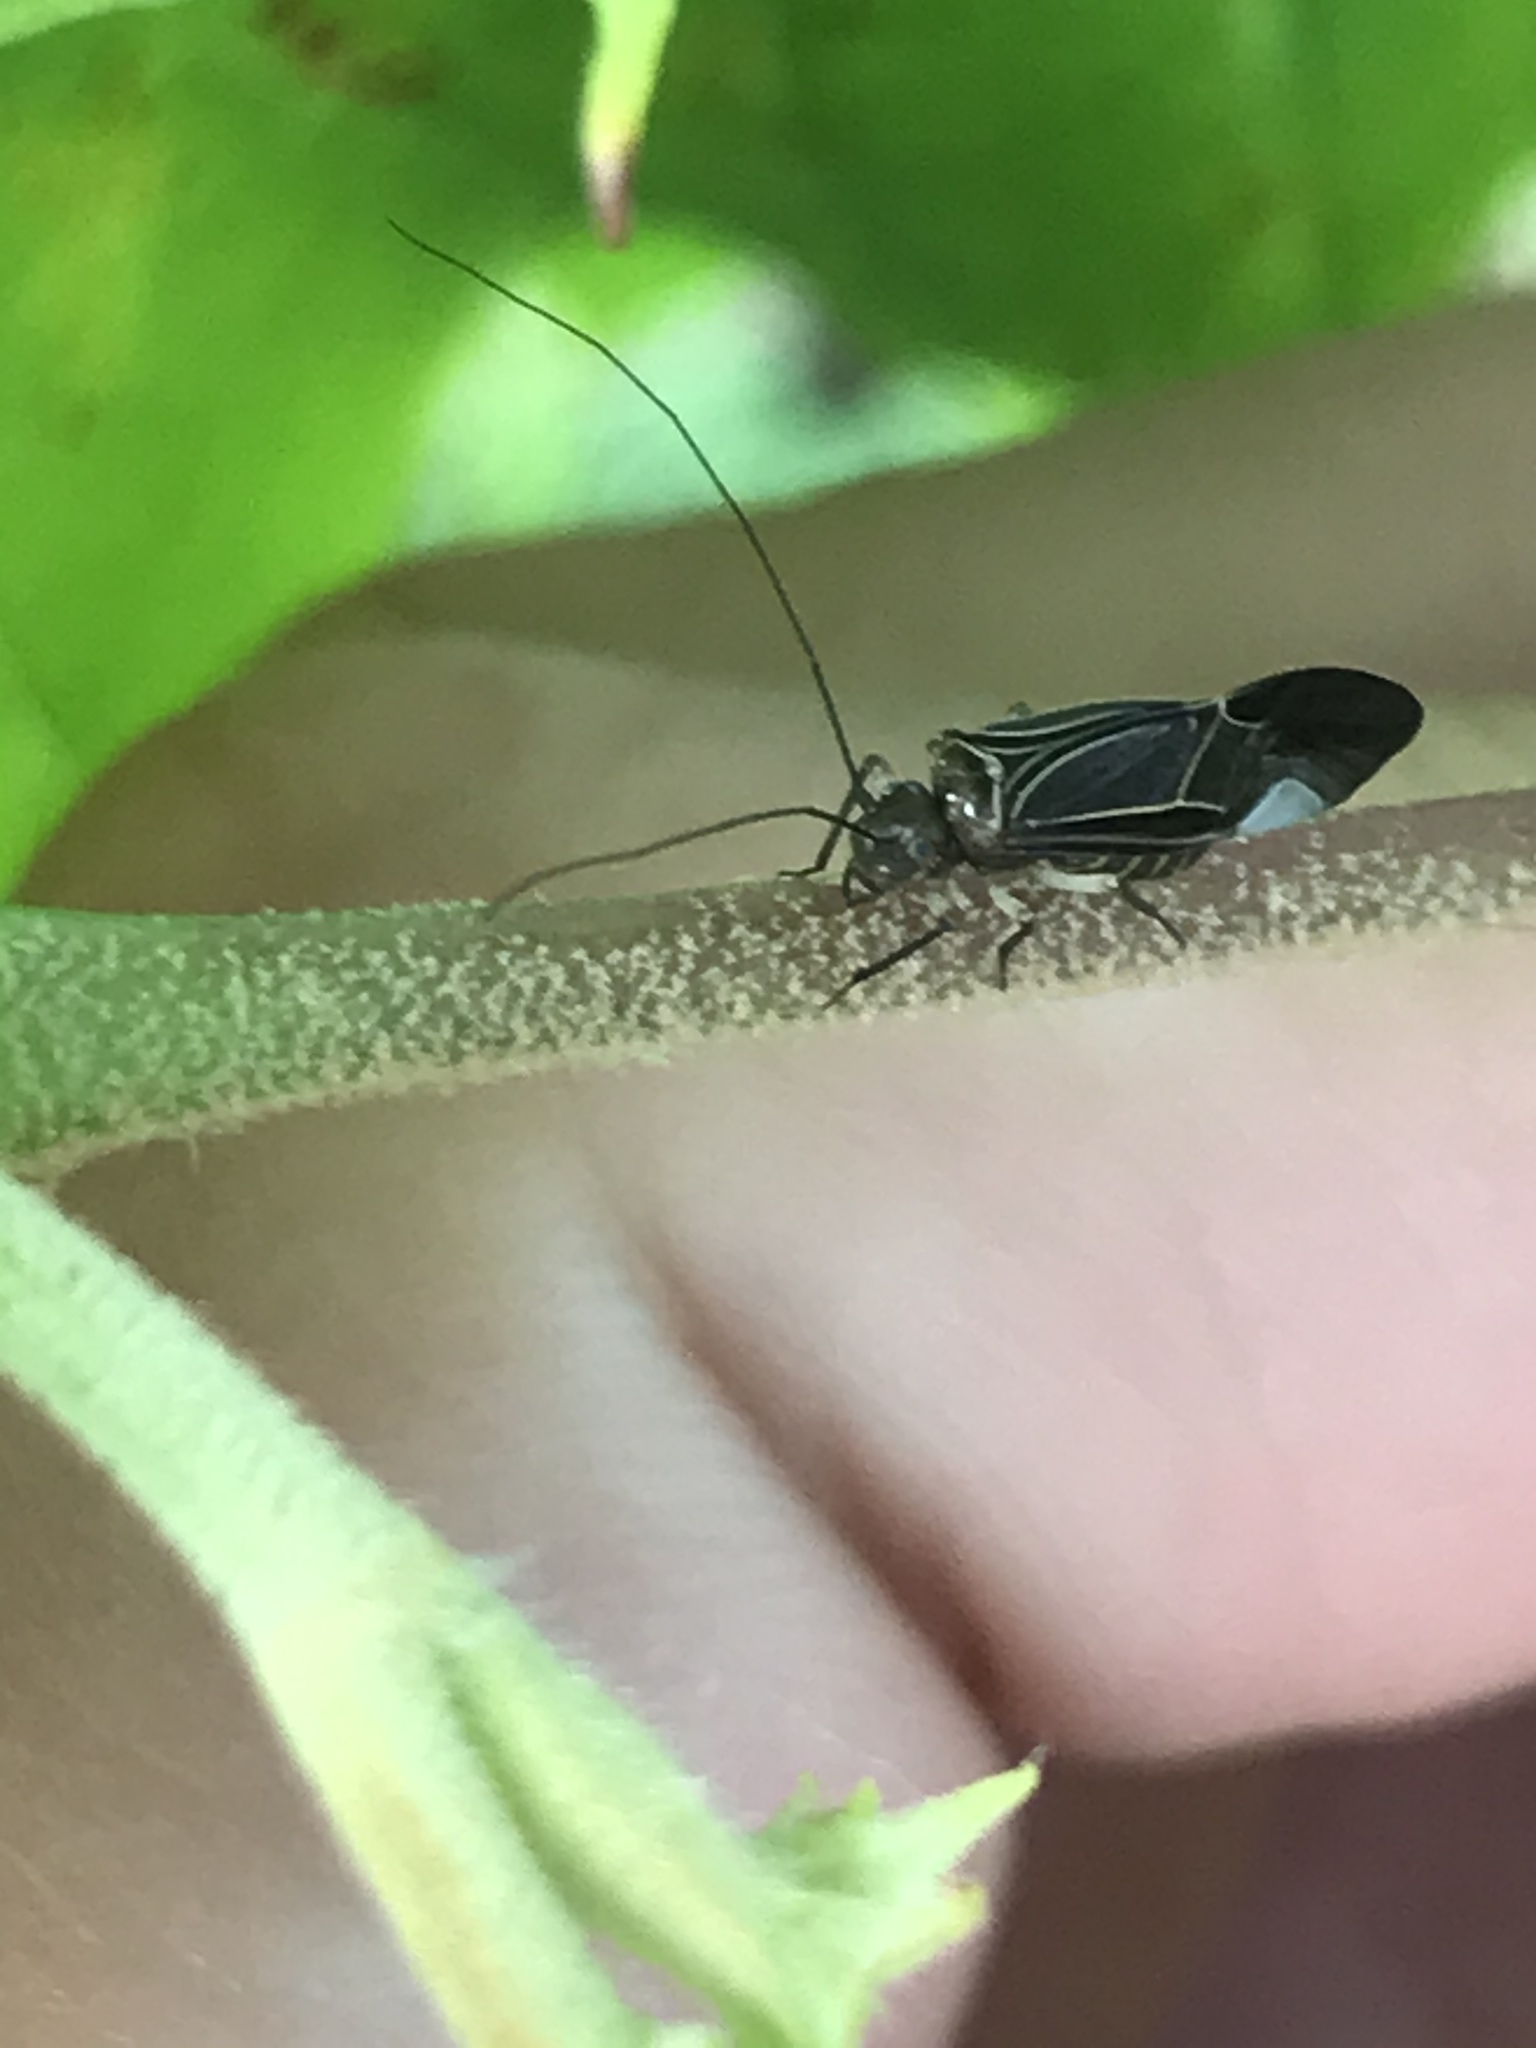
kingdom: Animalia
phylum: Arthropoda
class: Insecta
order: Psocodea
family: Psocidae
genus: Cerastipsocus
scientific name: Cerastipsocus venosus
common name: Tree cattle
